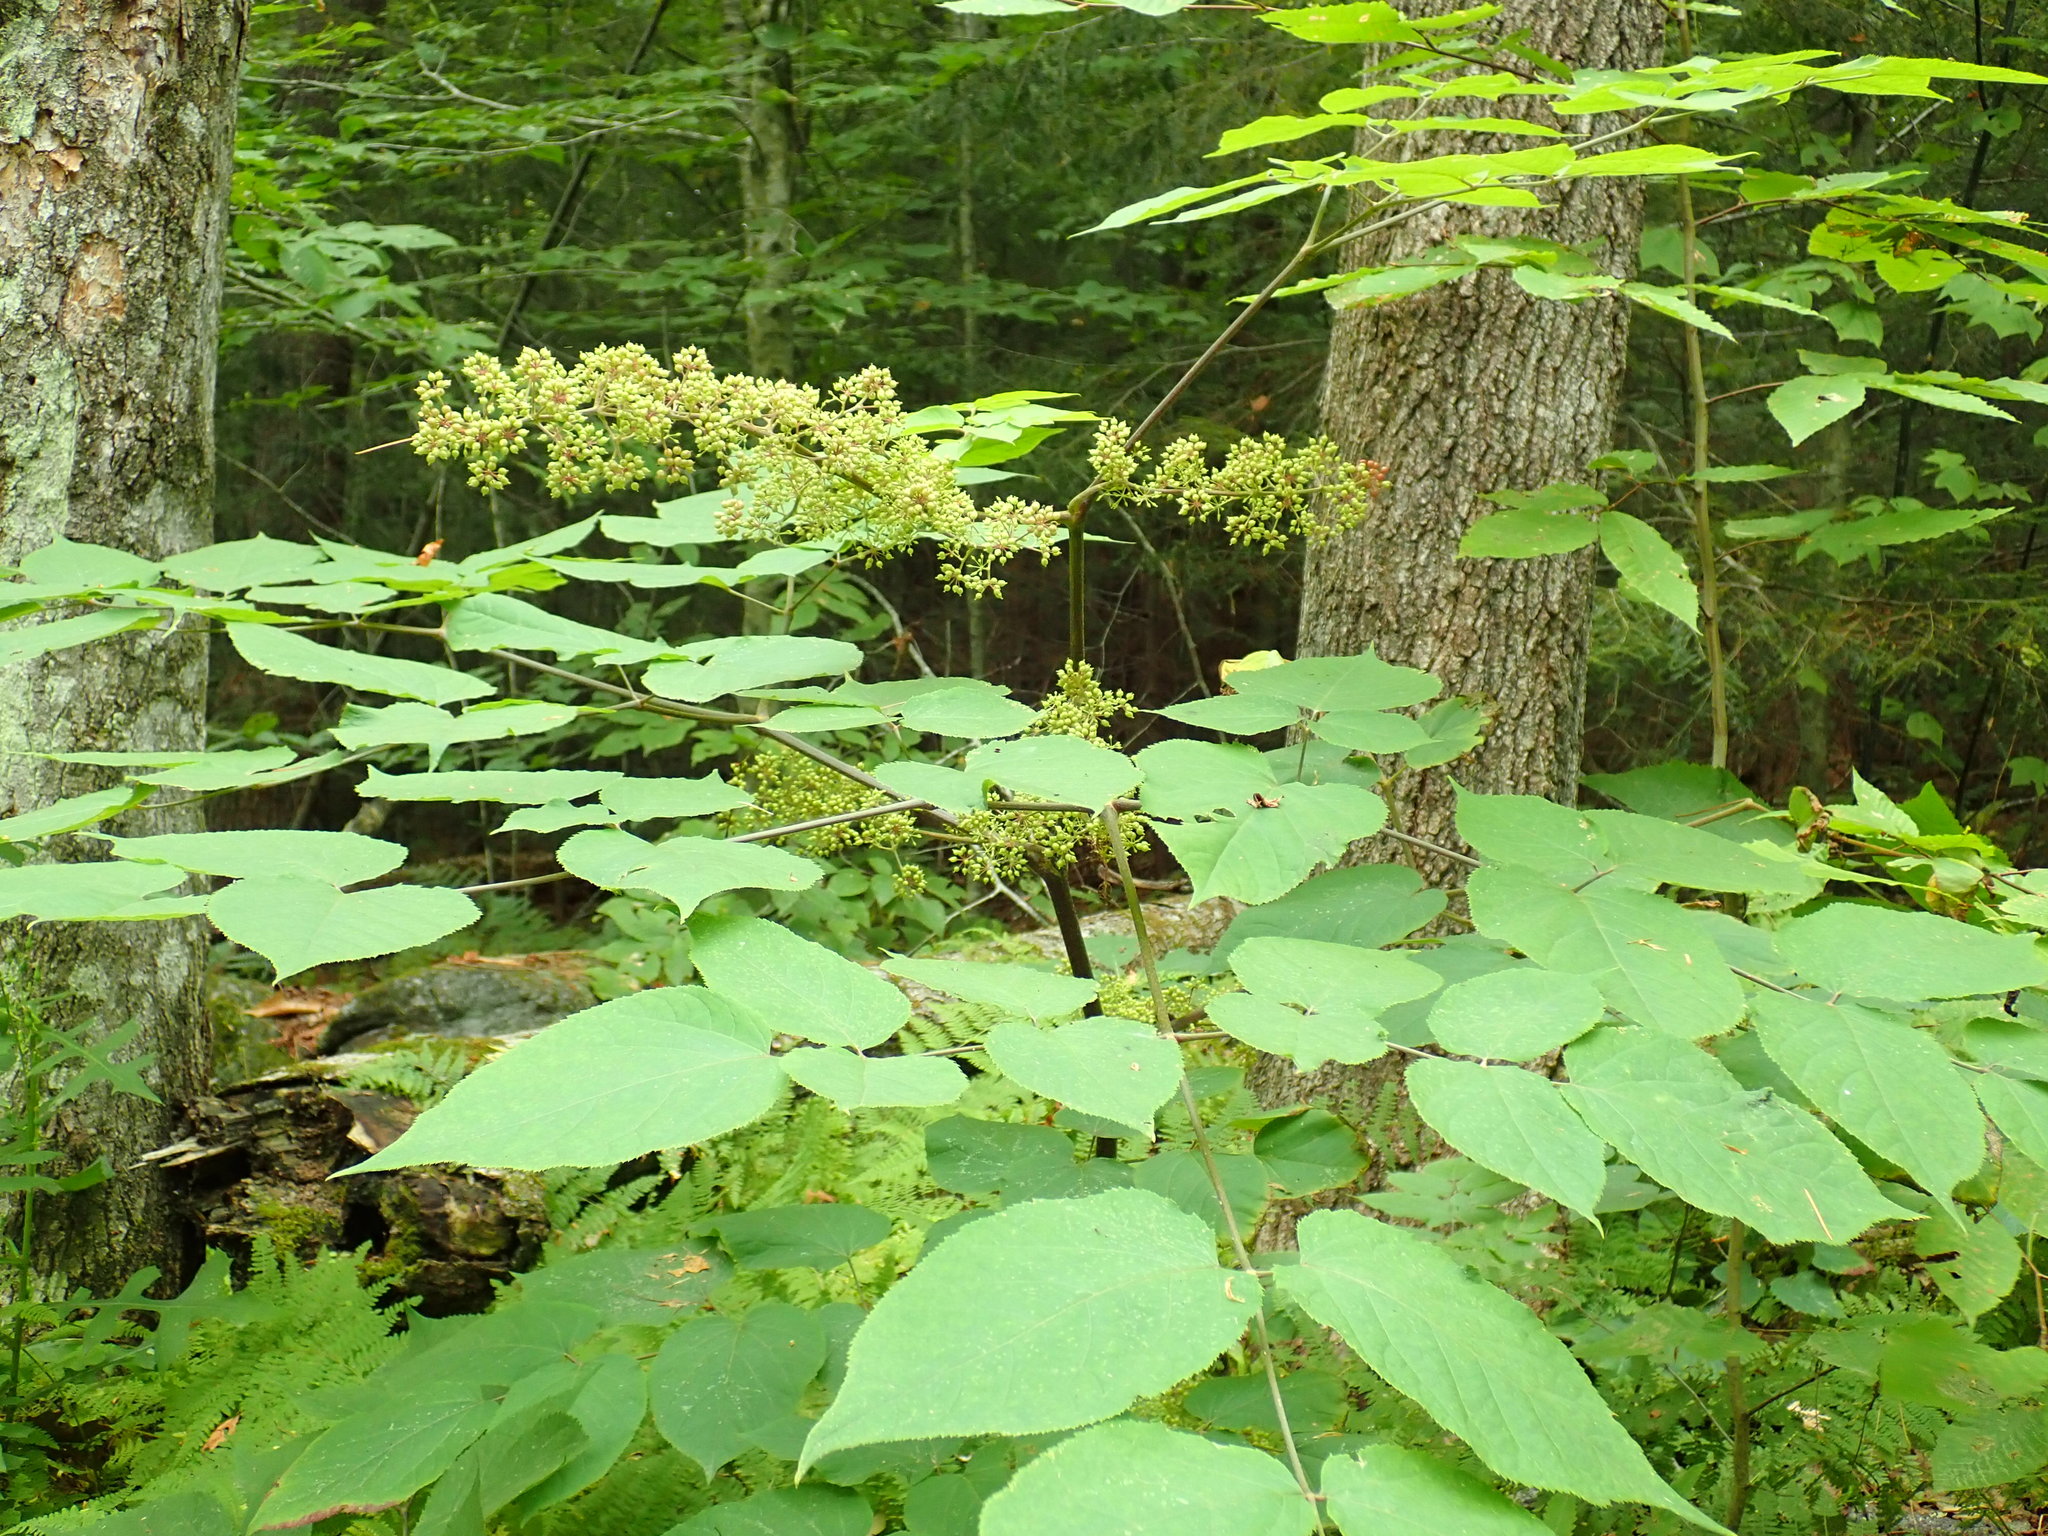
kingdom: Plantae
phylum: Tracheophyta
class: Magnoliopsida
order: Apiales
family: Araliaceae
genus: Aralia
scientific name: Aralia racemosa
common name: American-spikenard
